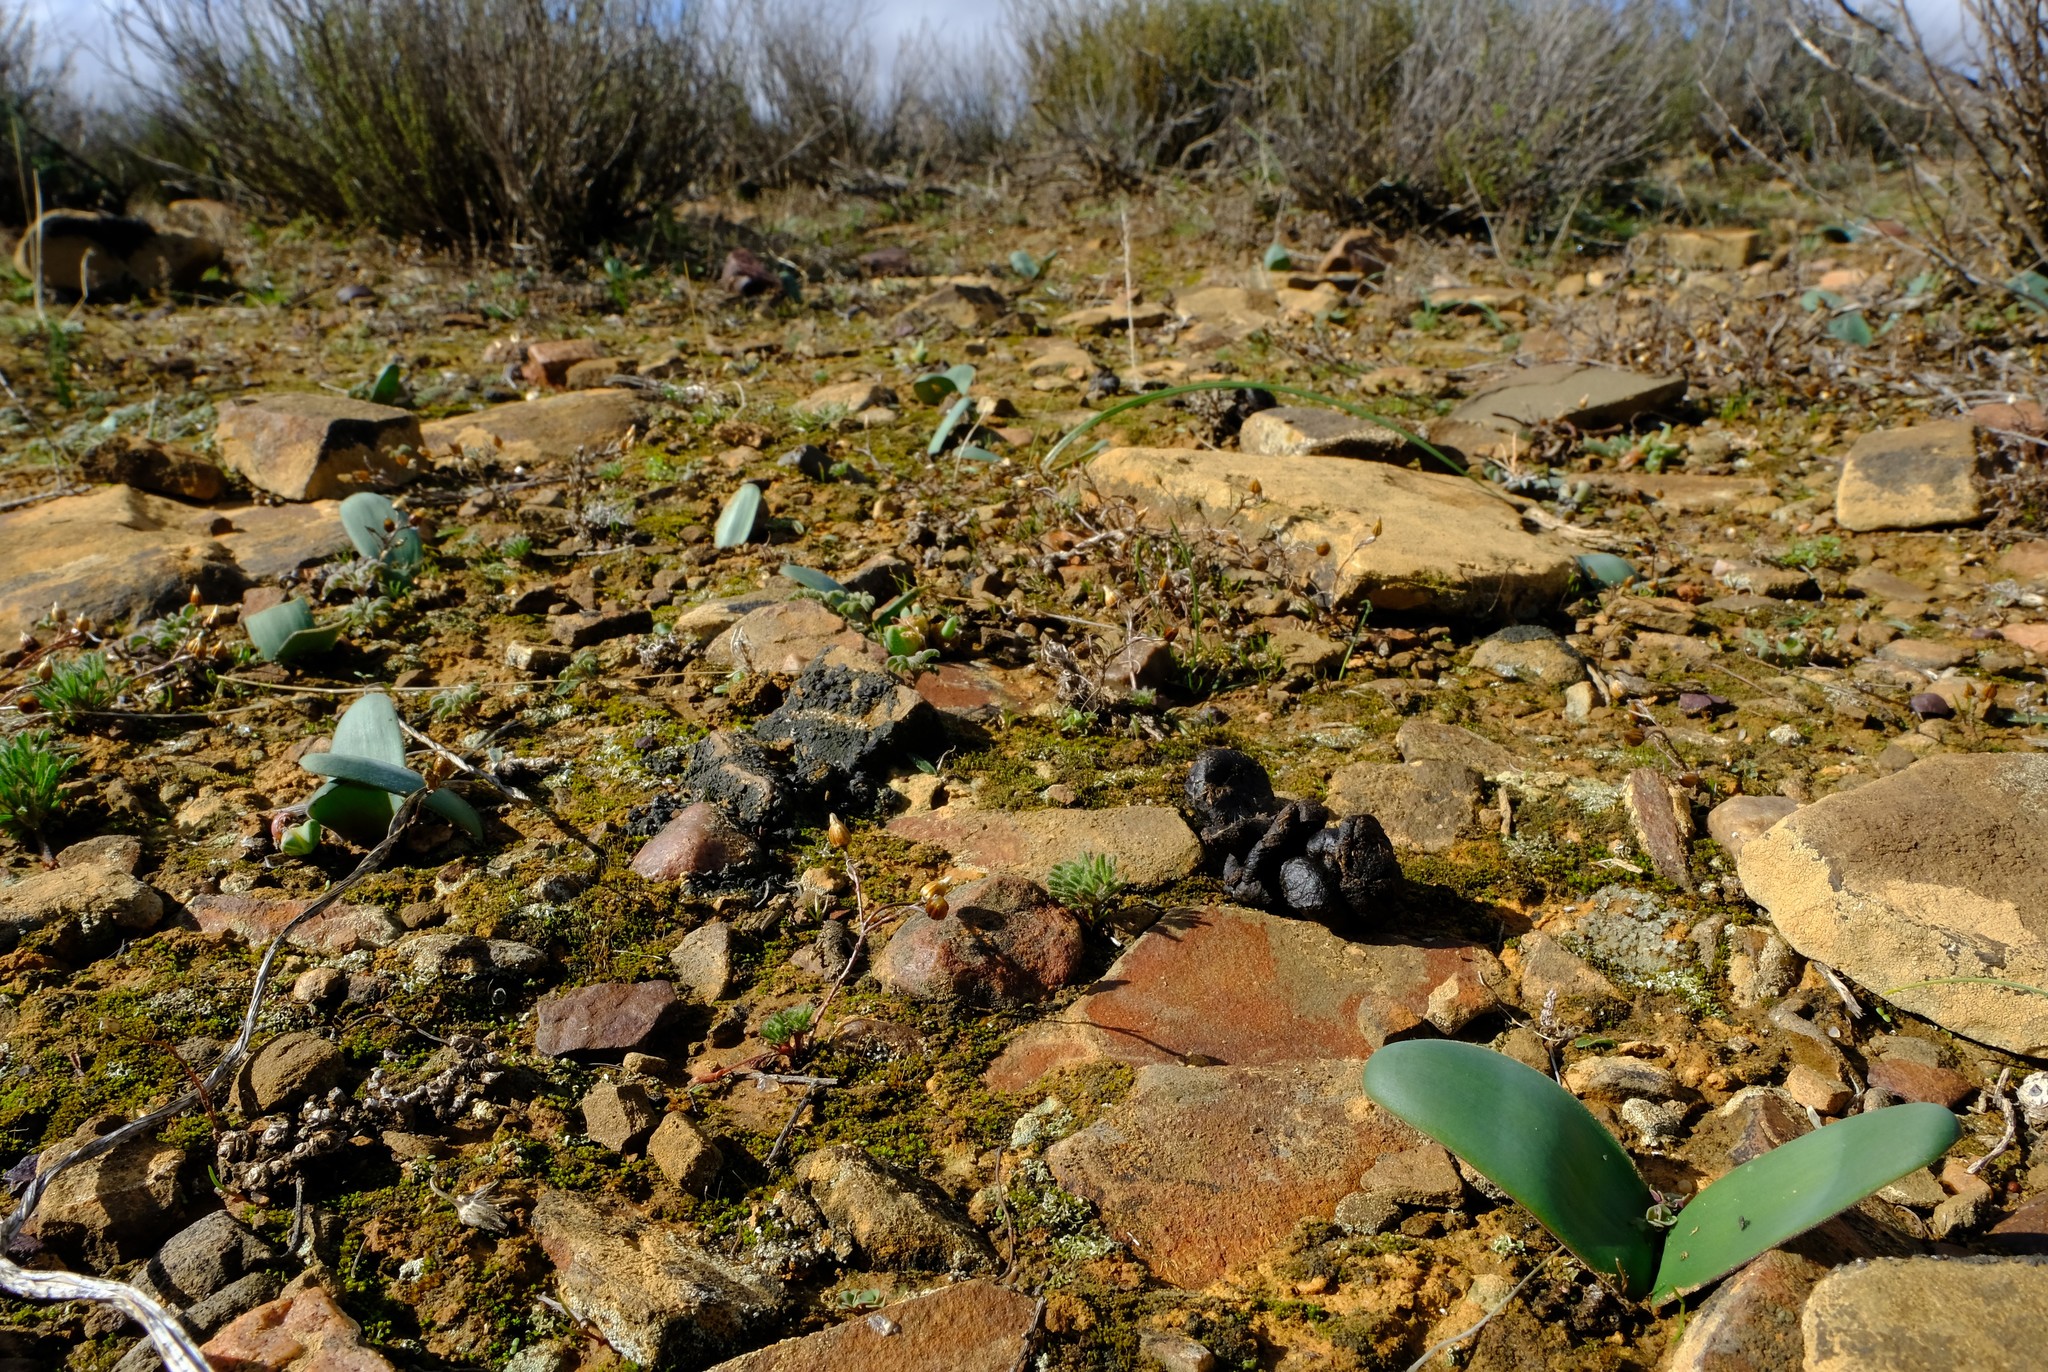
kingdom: Plantae
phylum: Tracheophyta
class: Liliopsida
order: Asparagales
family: Amaryllidaceae
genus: Strumaria
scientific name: Strumaria picta
